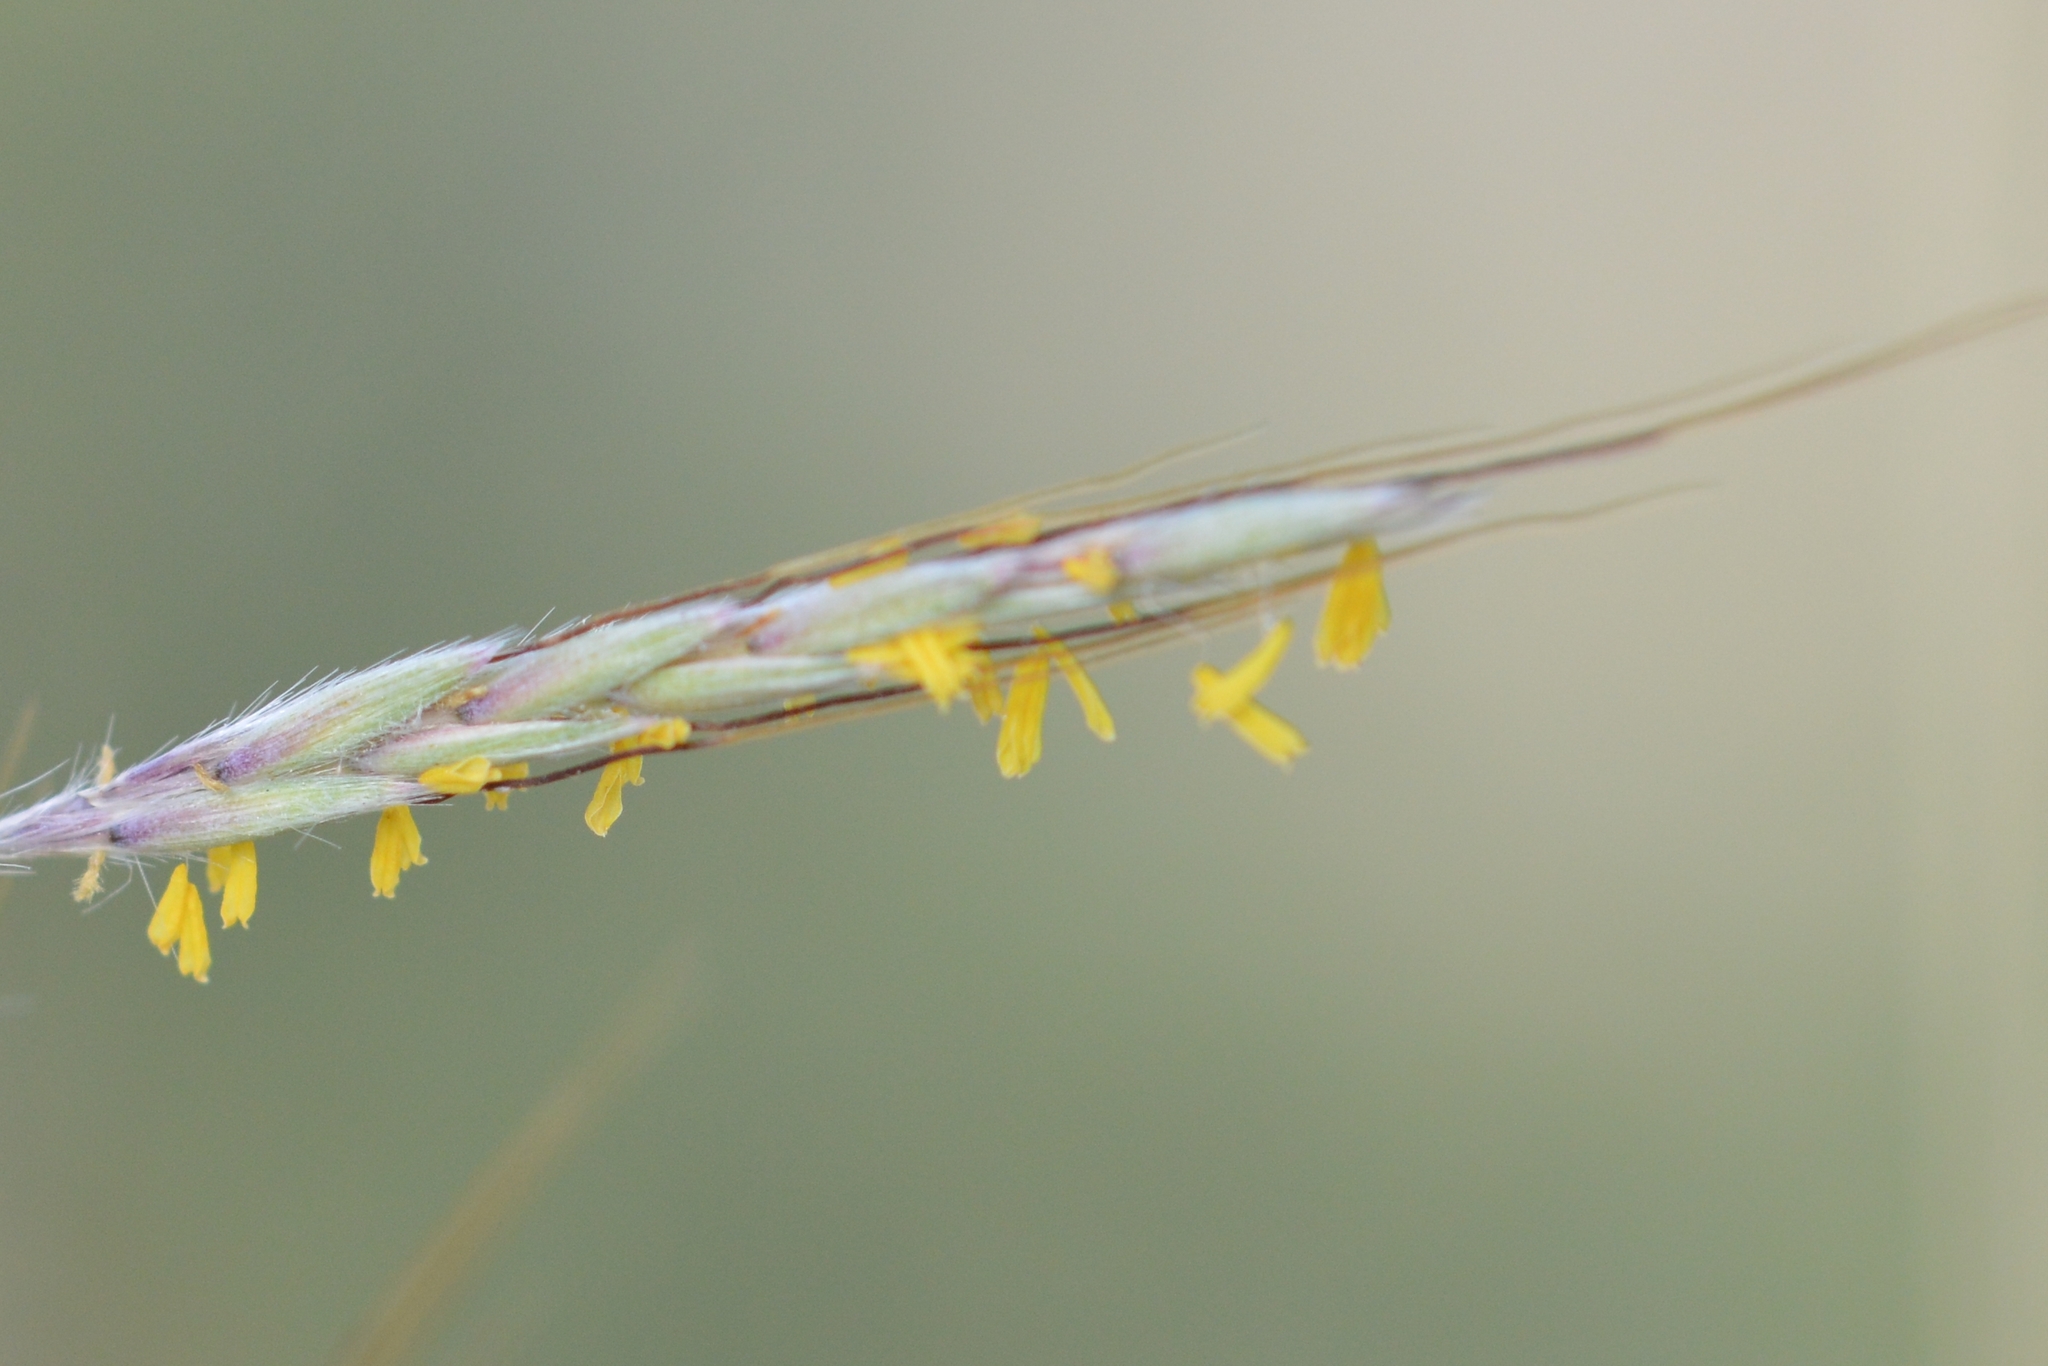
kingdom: Plantae
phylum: Tracheophyta
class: Liliopsida
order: Poales
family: Poaceae
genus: Hyparrhenia
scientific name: Hyparrhenia hirta
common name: Thatching grass
